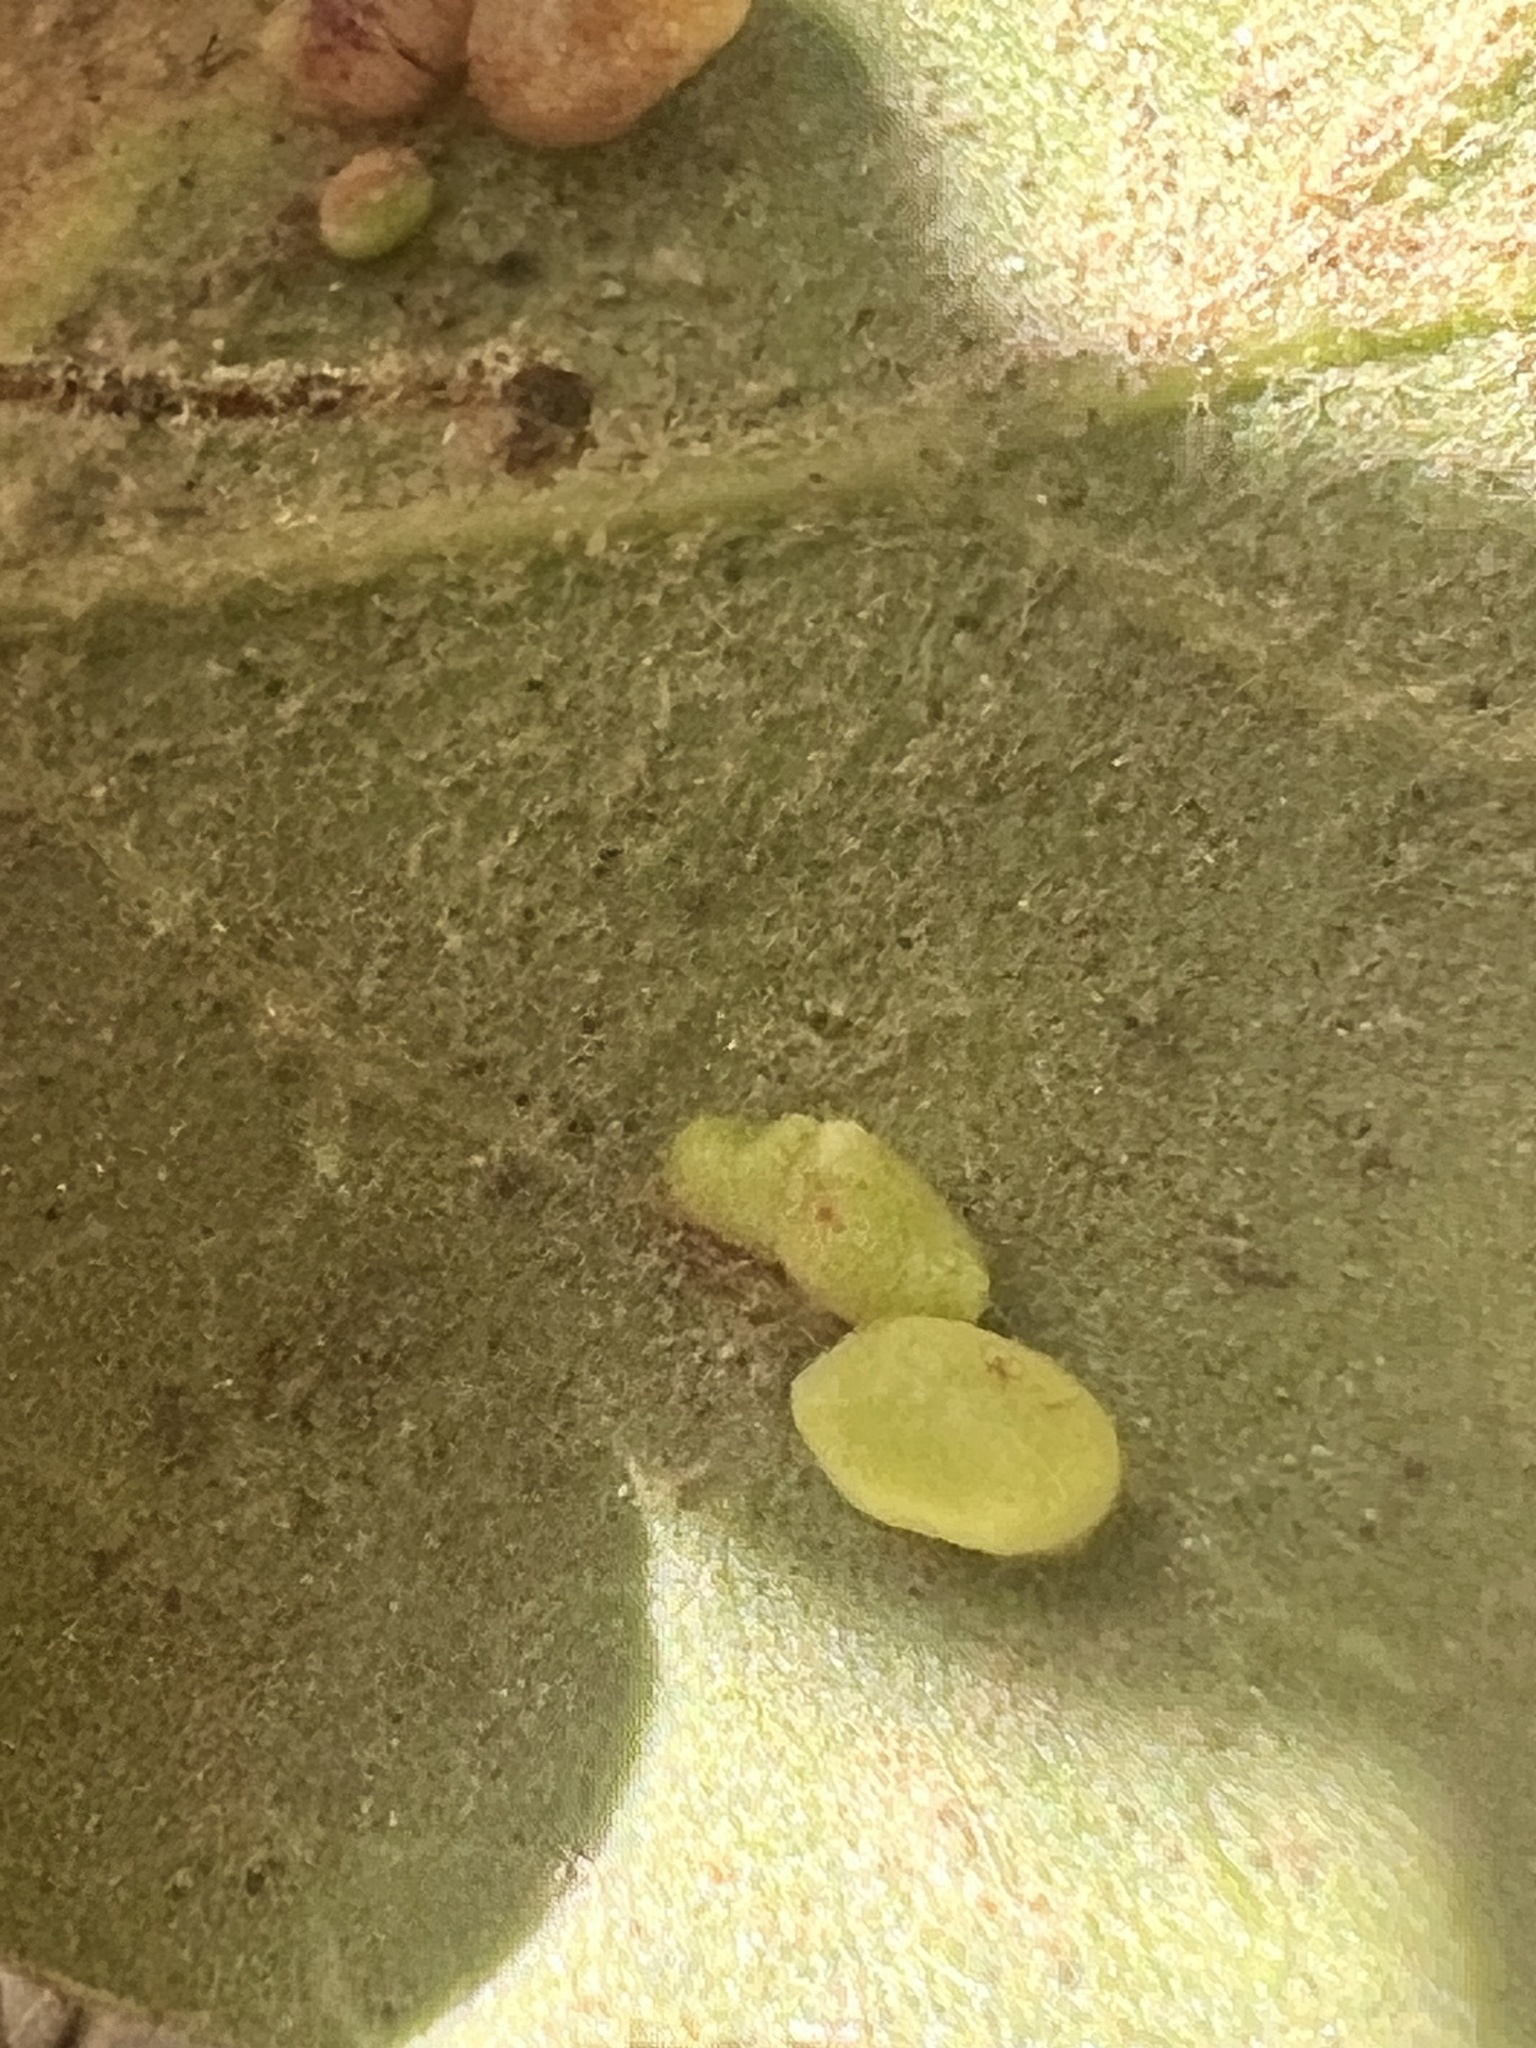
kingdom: Animalia
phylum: Arthropoda
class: Insecta
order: Hymenoptera
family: Cynipidae
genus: Dryocosmus
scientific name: Dryocosmus
